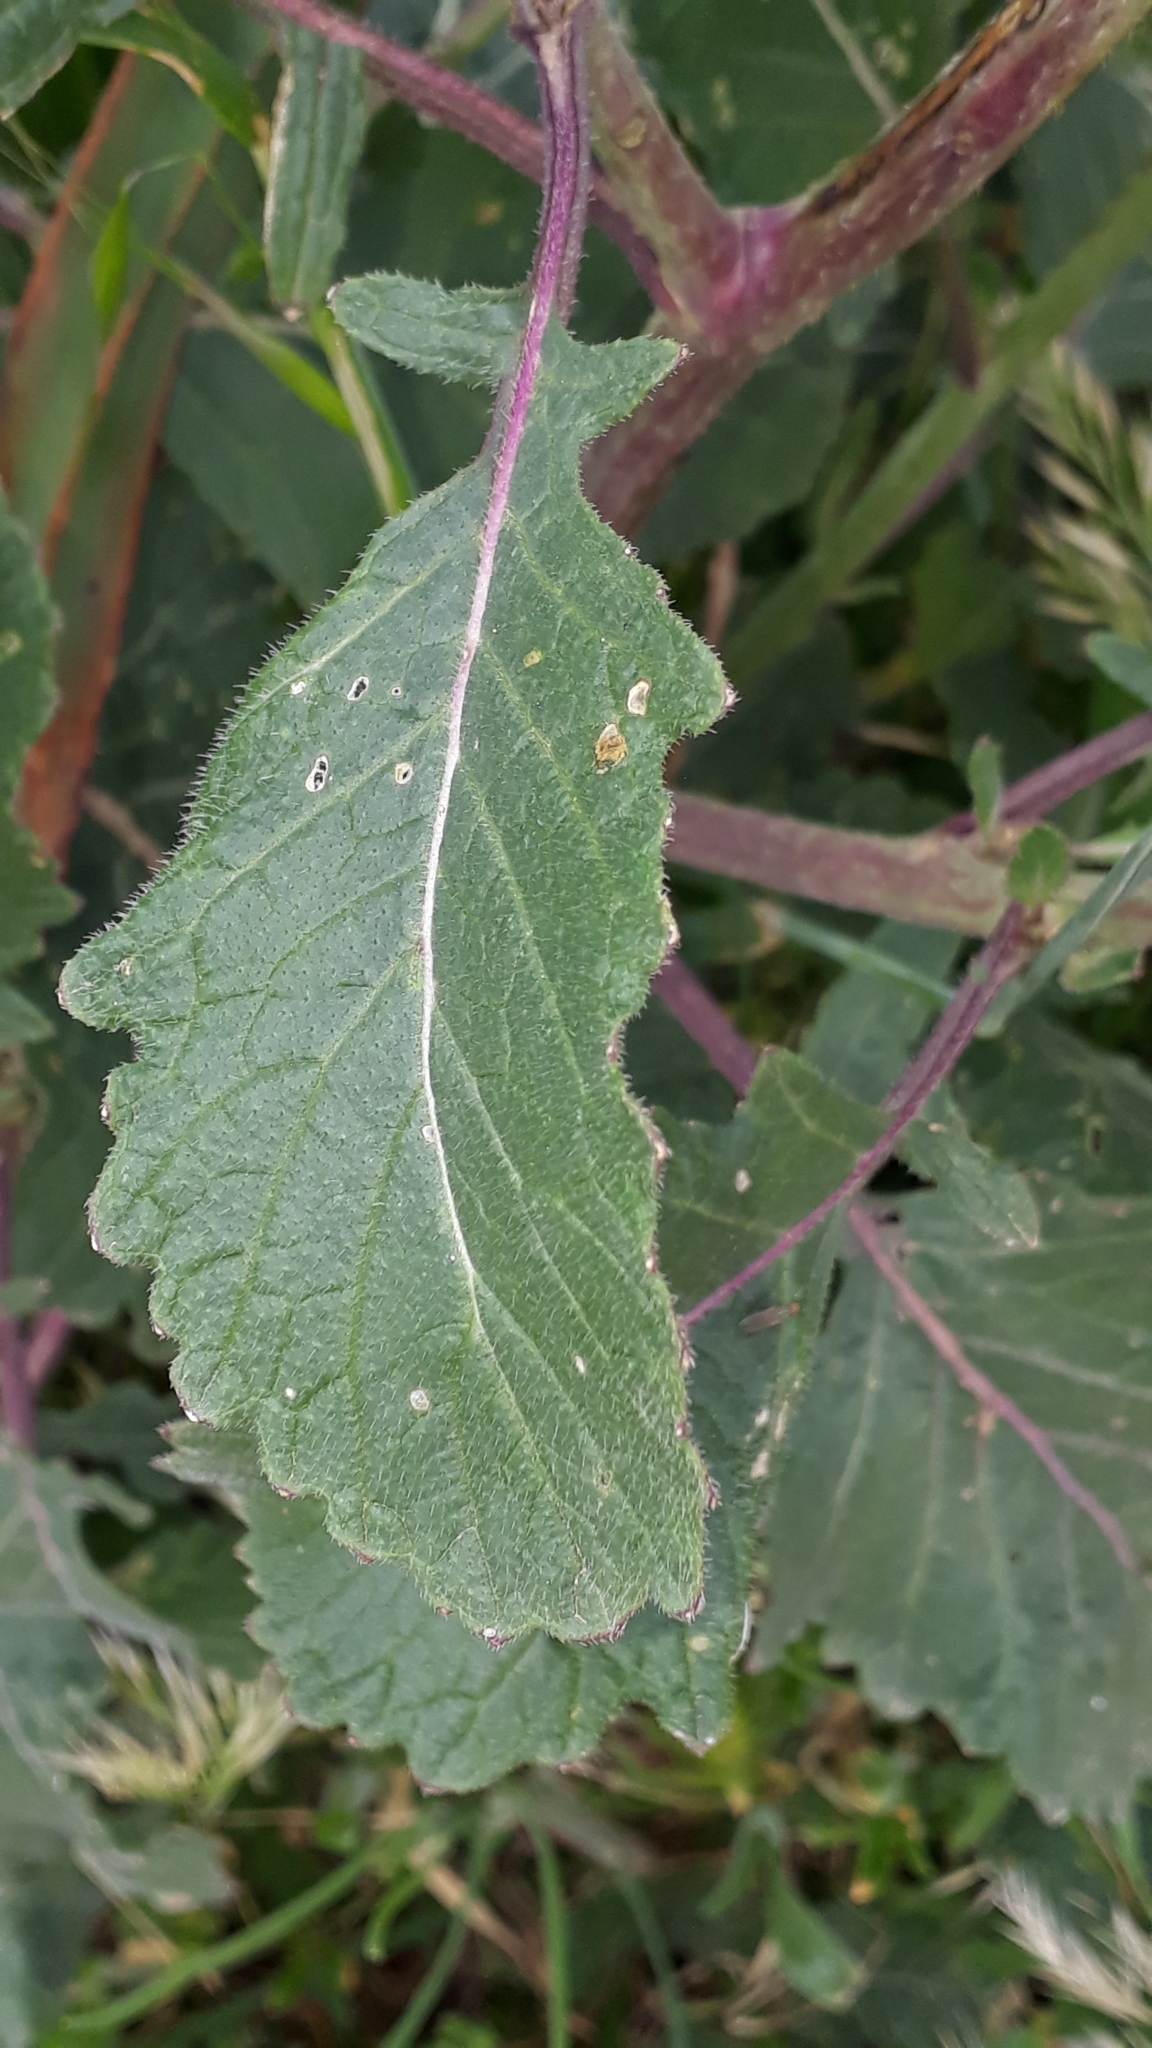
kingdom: Plantae
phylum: Tracheophyta
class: Magnoliopsida
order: Brassicales
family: Brassicaceae
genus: Sisymbrium
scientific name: Sisymbrium officinale
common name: Hedge mustard
